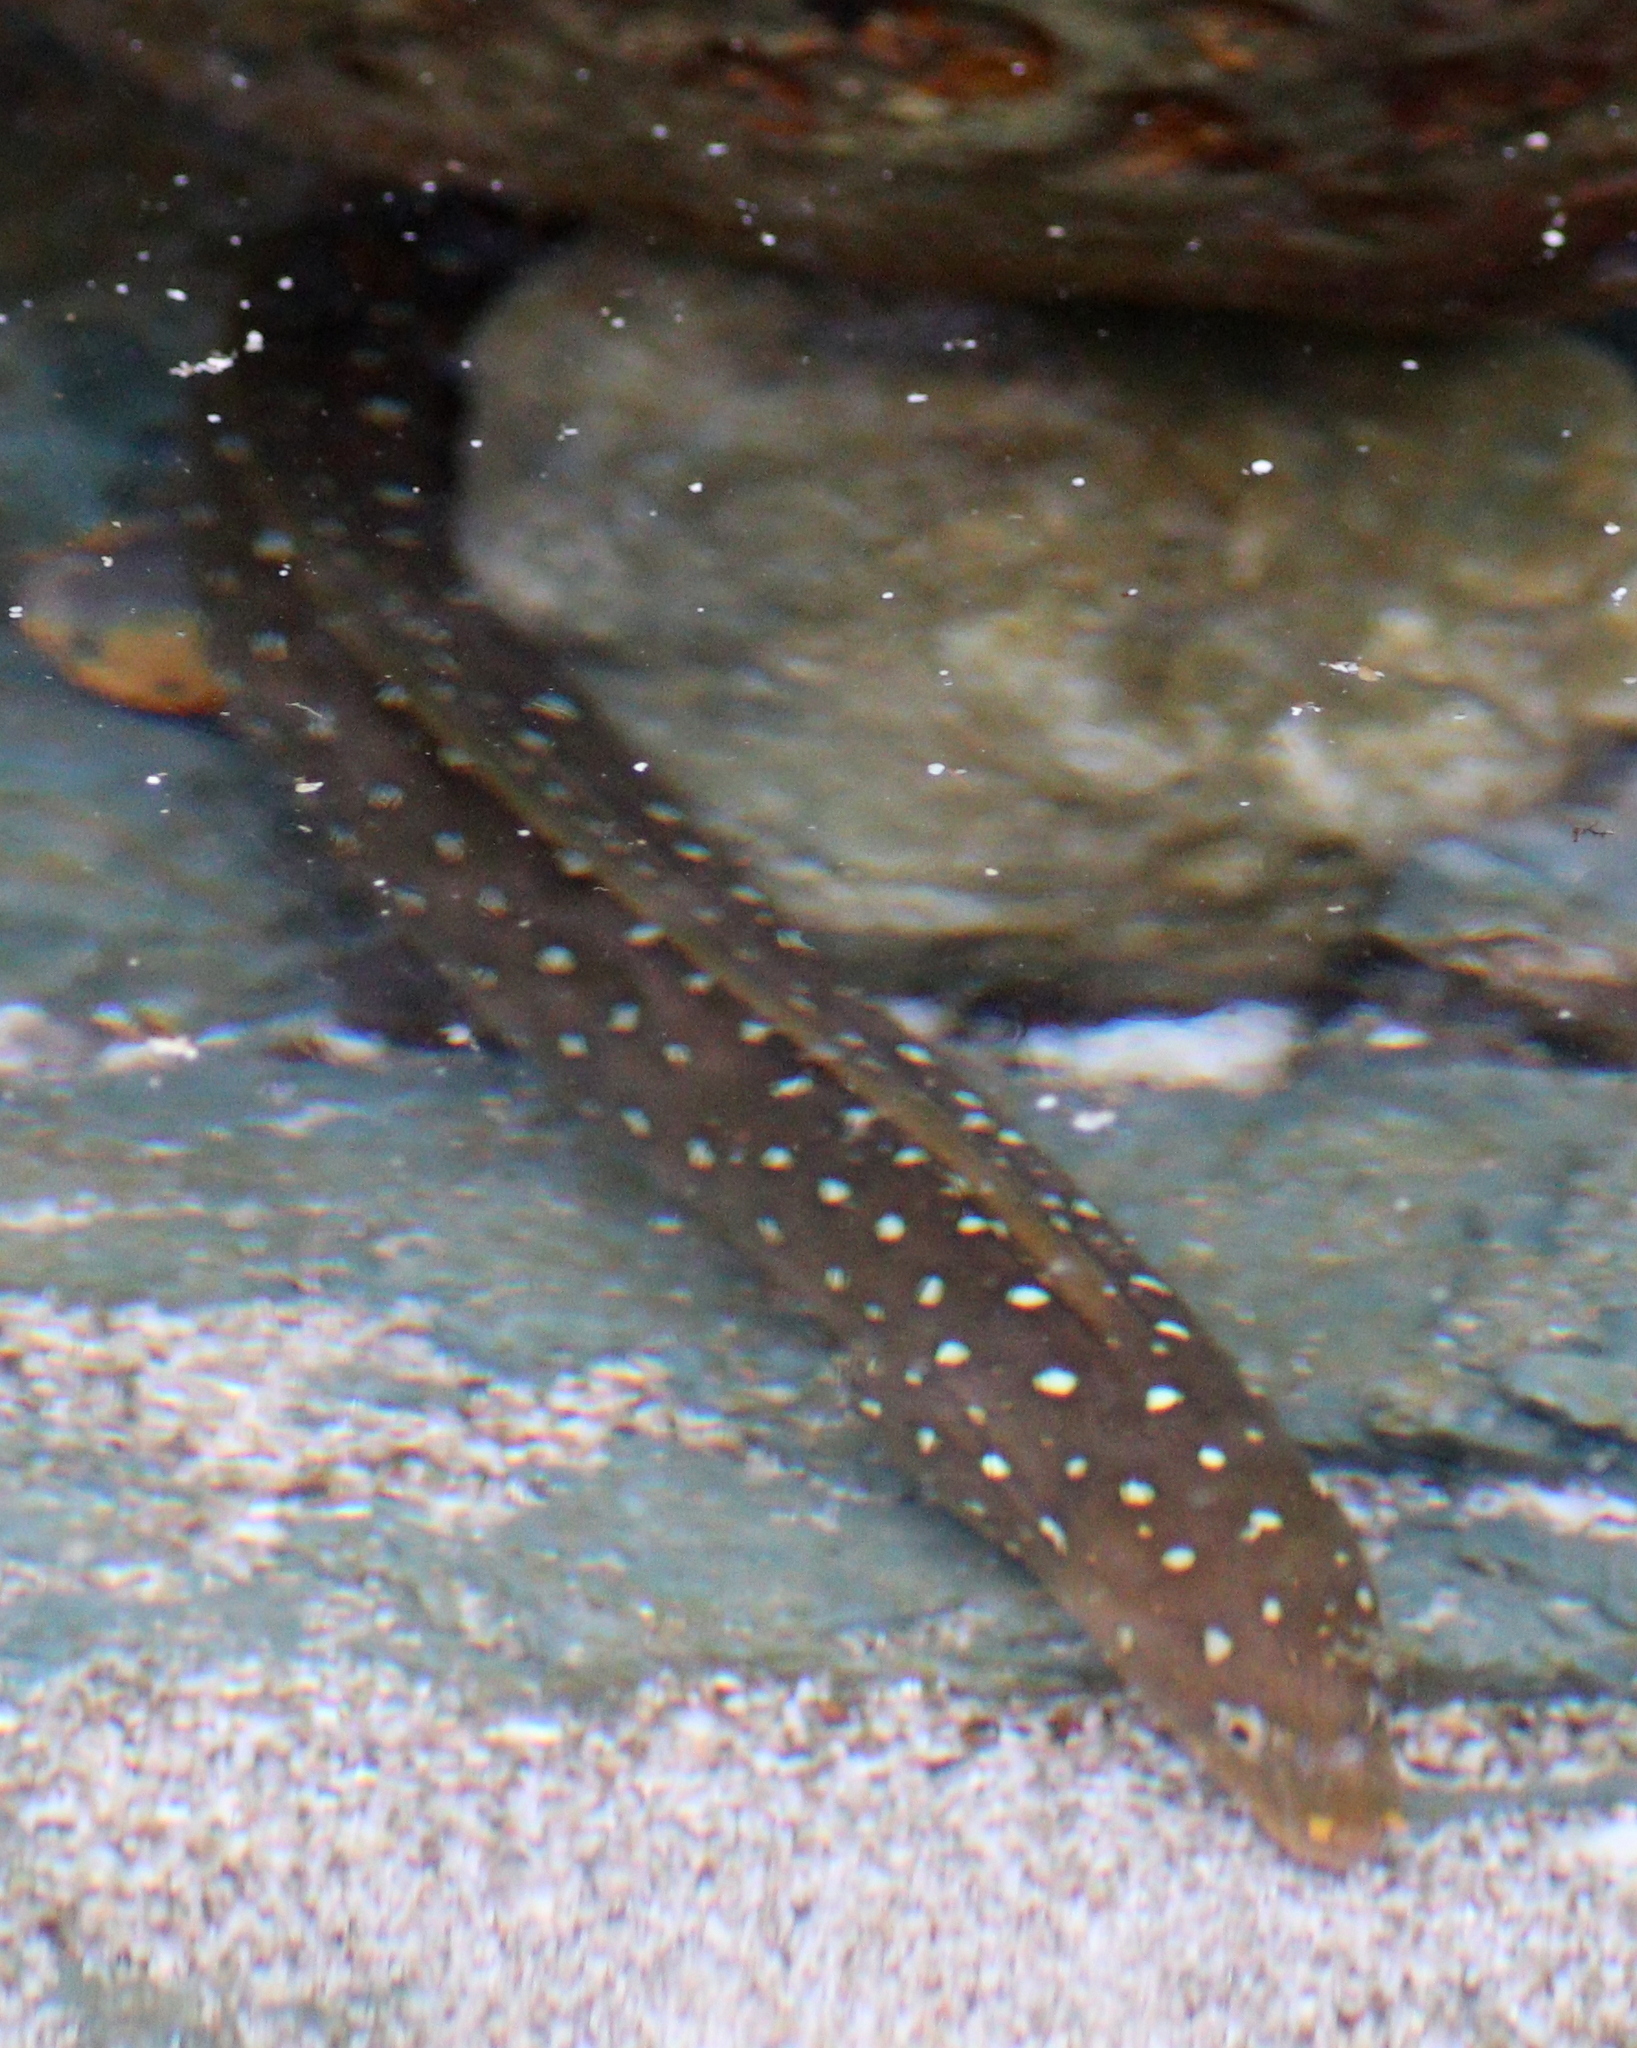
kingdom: Animalia
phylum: Chordata
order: Anguilliformes
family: Muraenidae
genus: Echidna
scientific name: Echidna nocturna
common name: Palenose moray
